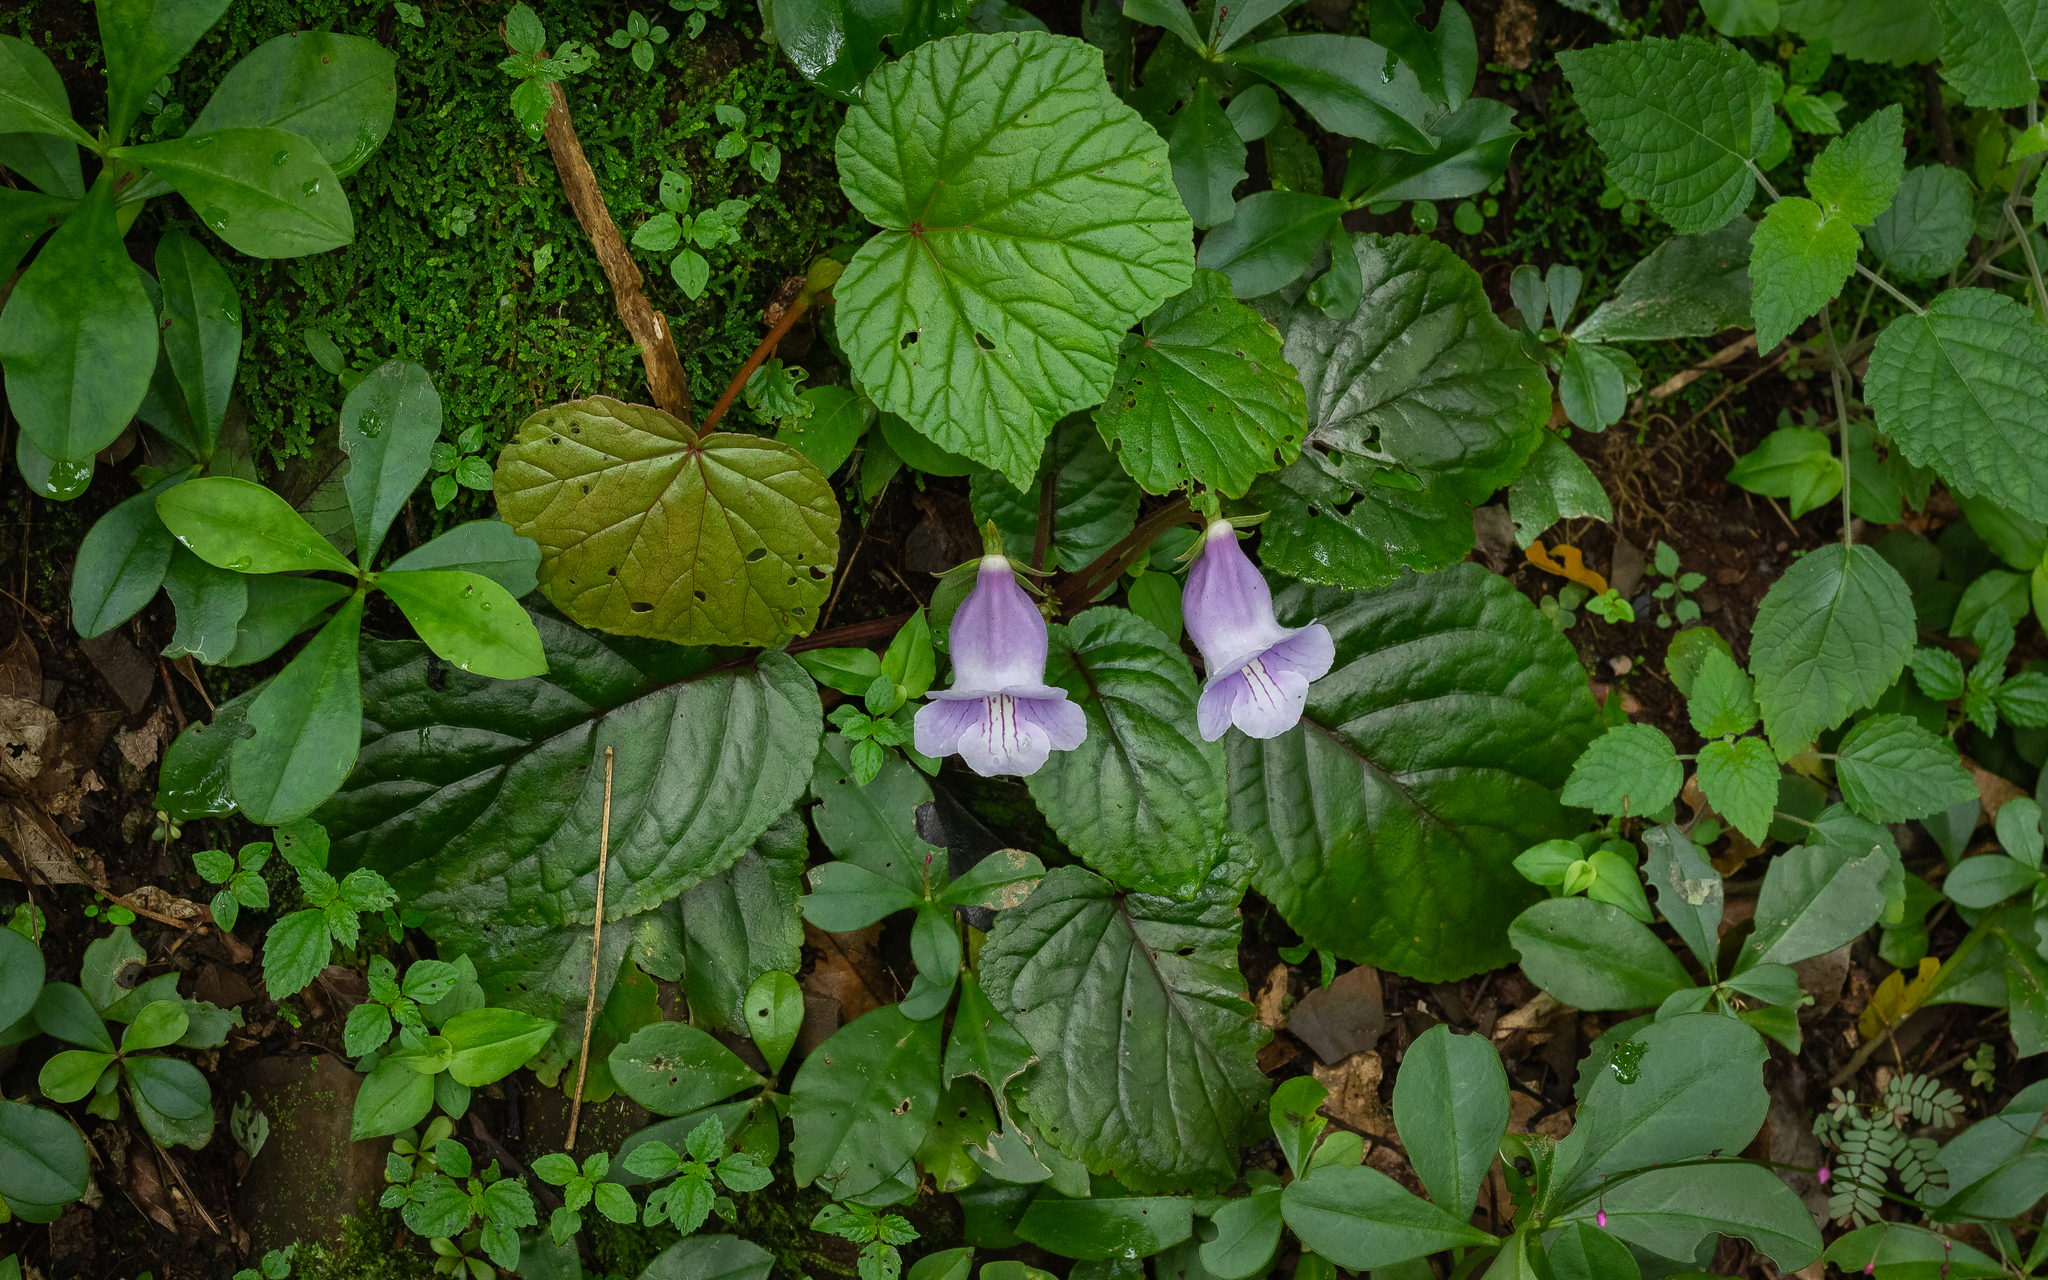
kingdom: Plantae
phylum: Tracheophyta
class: Magnoliopsida
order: Lamiales
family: Gesneriaceae
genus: Sinningia
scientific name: Sinningia eumorpha
